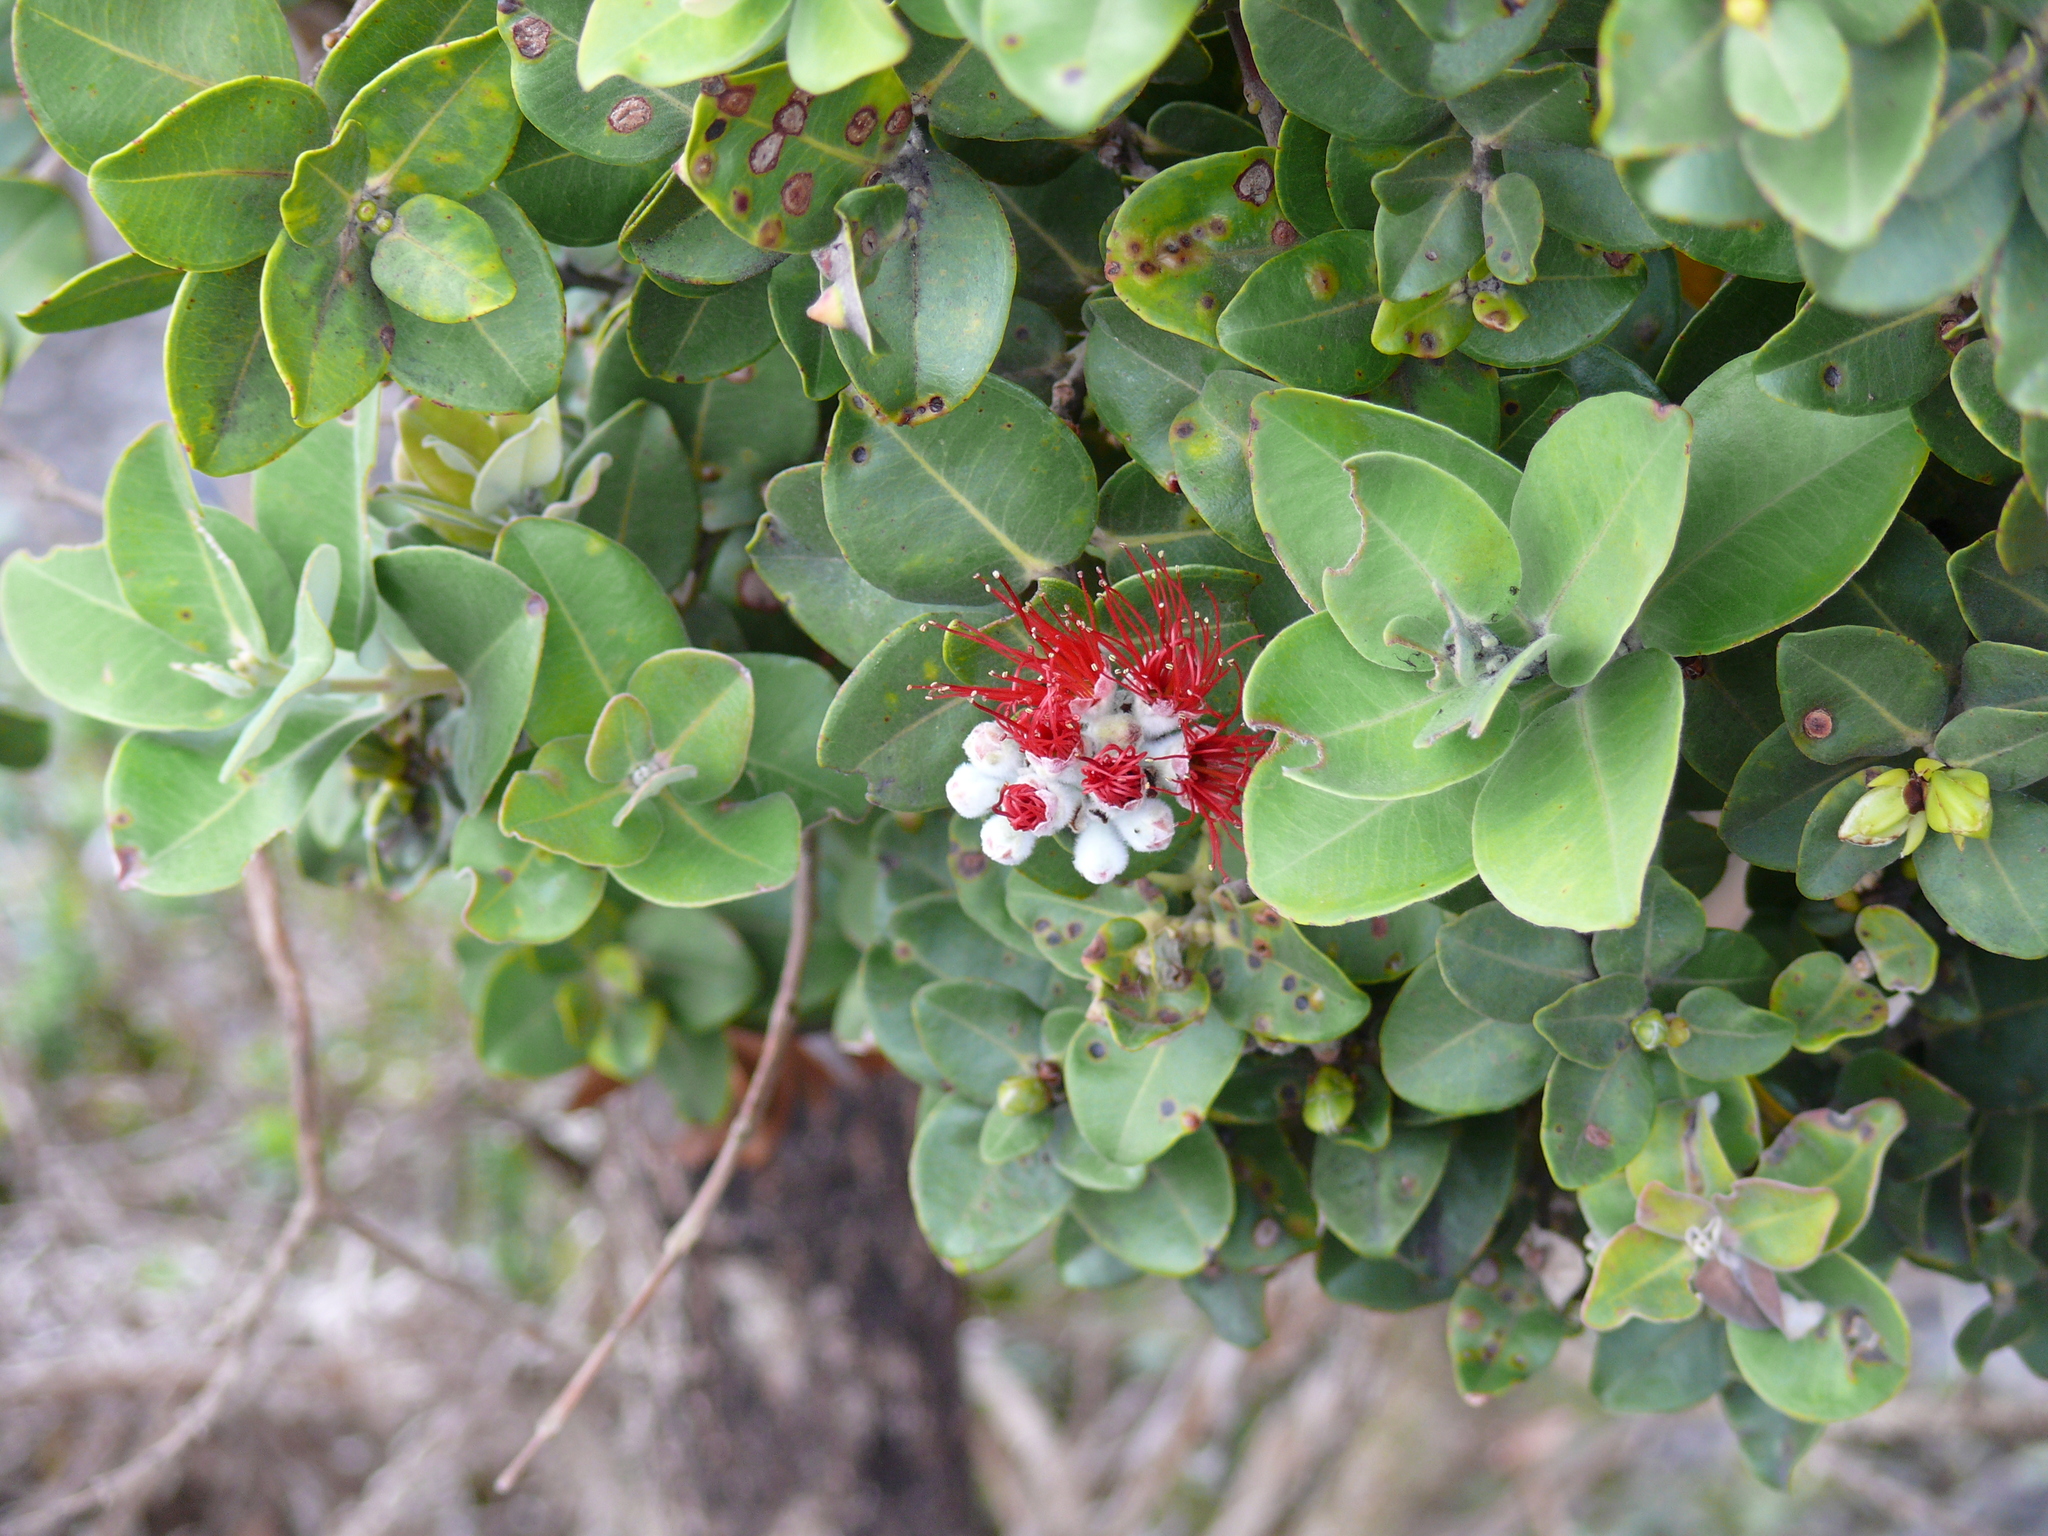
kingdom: Plantae
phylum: Tracheophyta
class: Magnoliopsida
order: Myrtales
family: Myrtaceae
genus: Metrosideros
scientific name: Metrosideros polymorpha
